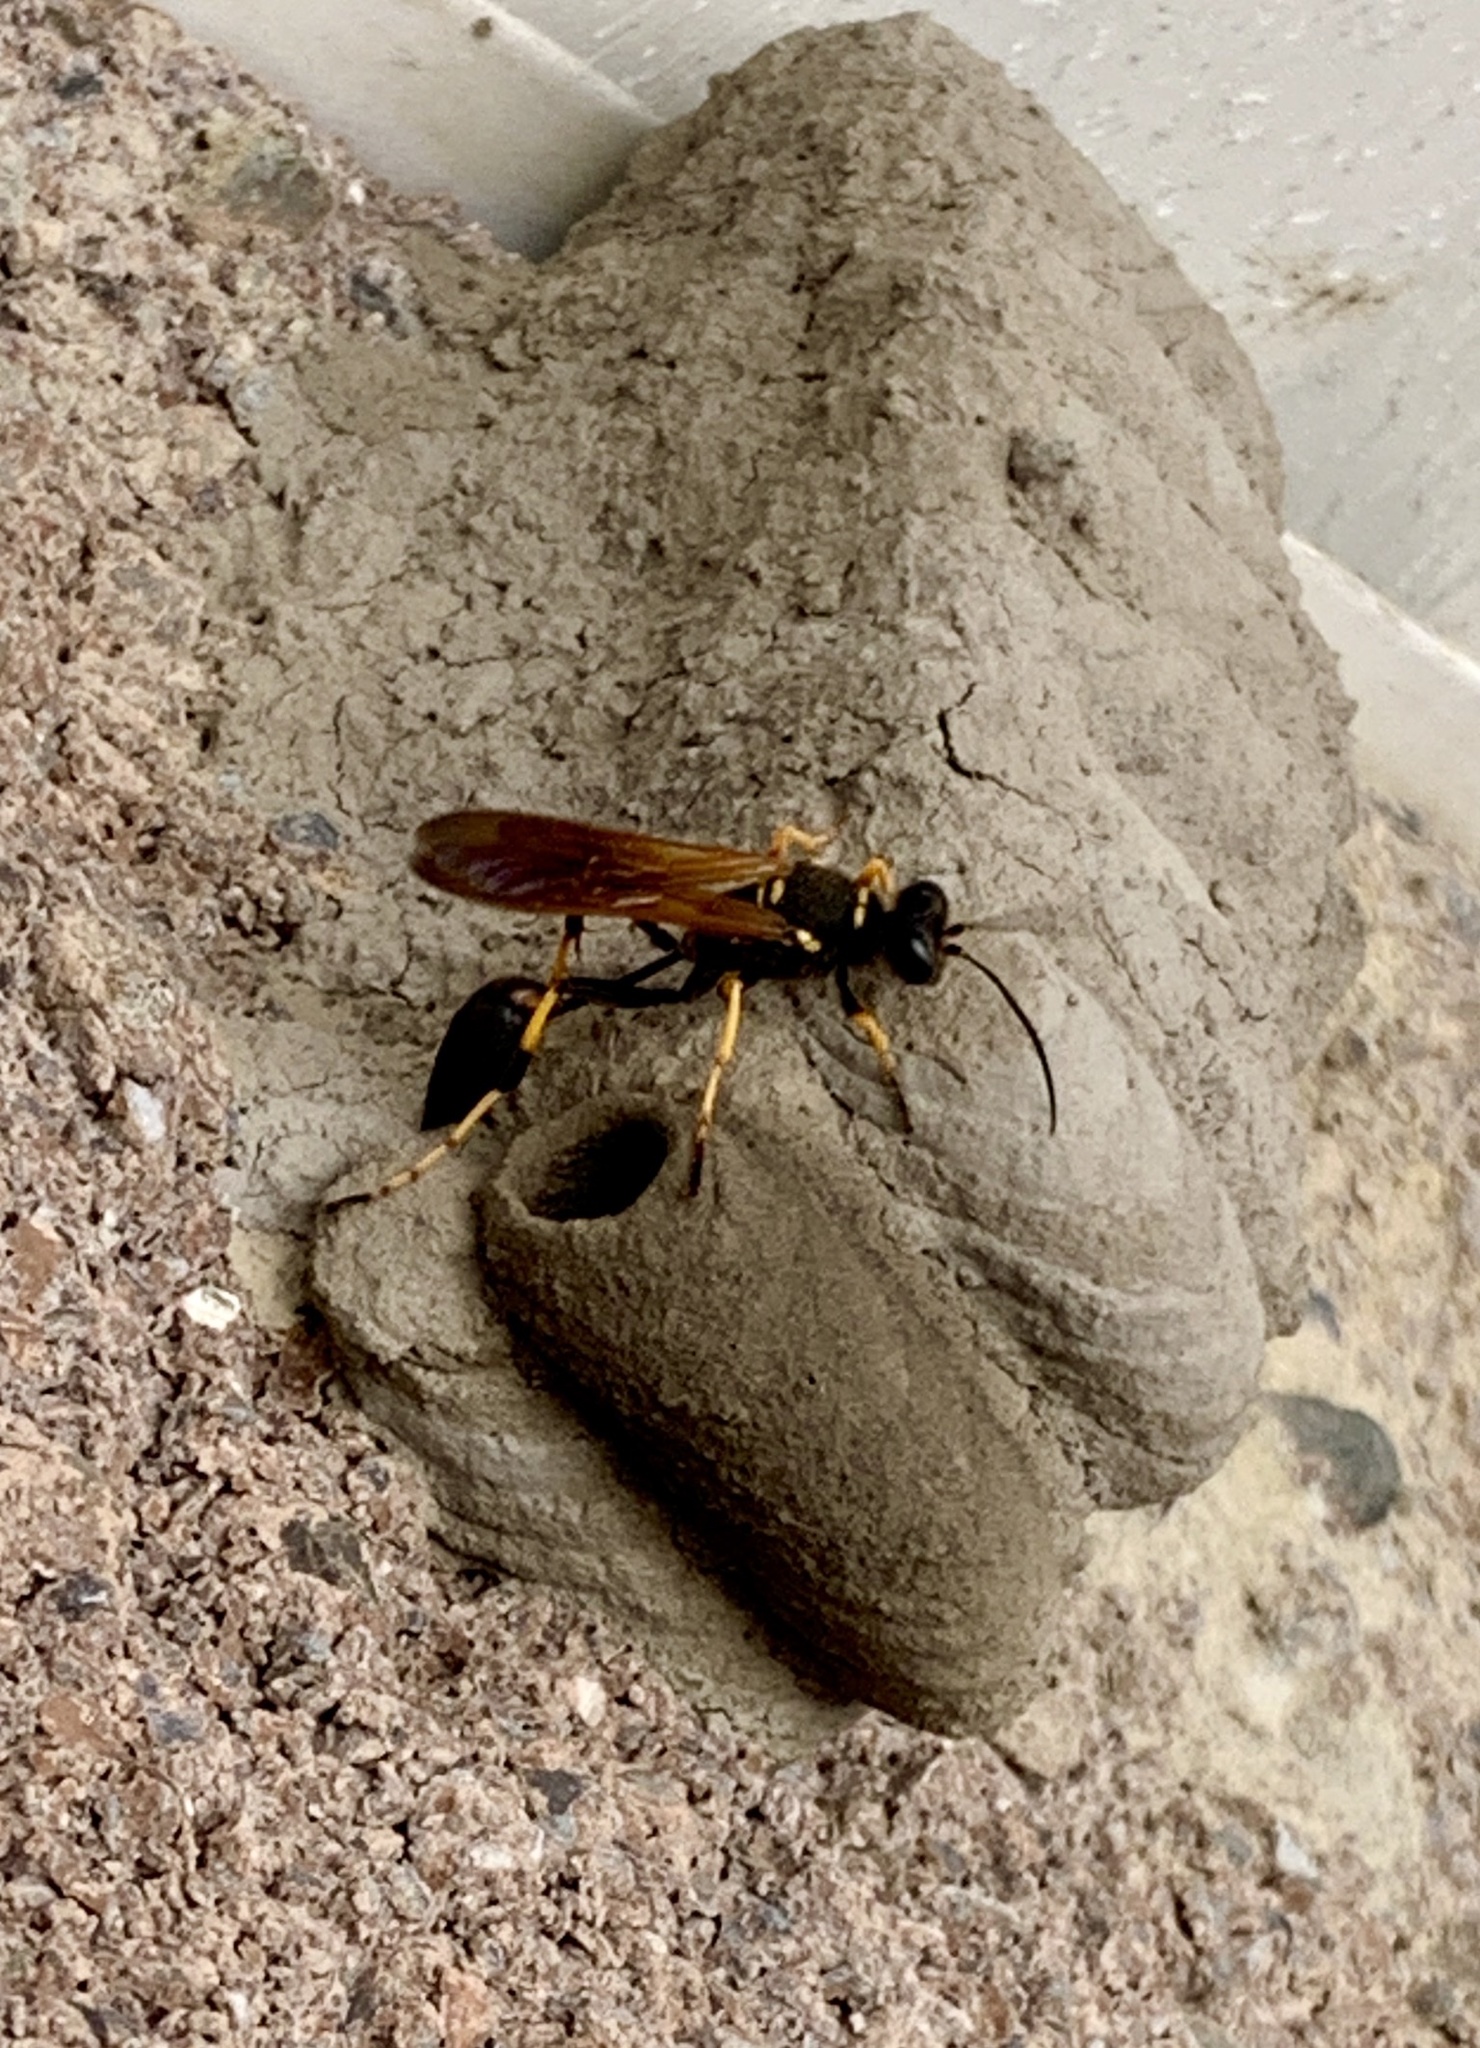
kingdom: Animalia
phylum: Arthropoda
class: Insecta
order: Hymenoptera
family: Sphecidae
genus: Sceliphron
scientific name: Sceliphron caementarium
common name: Mud dauber
